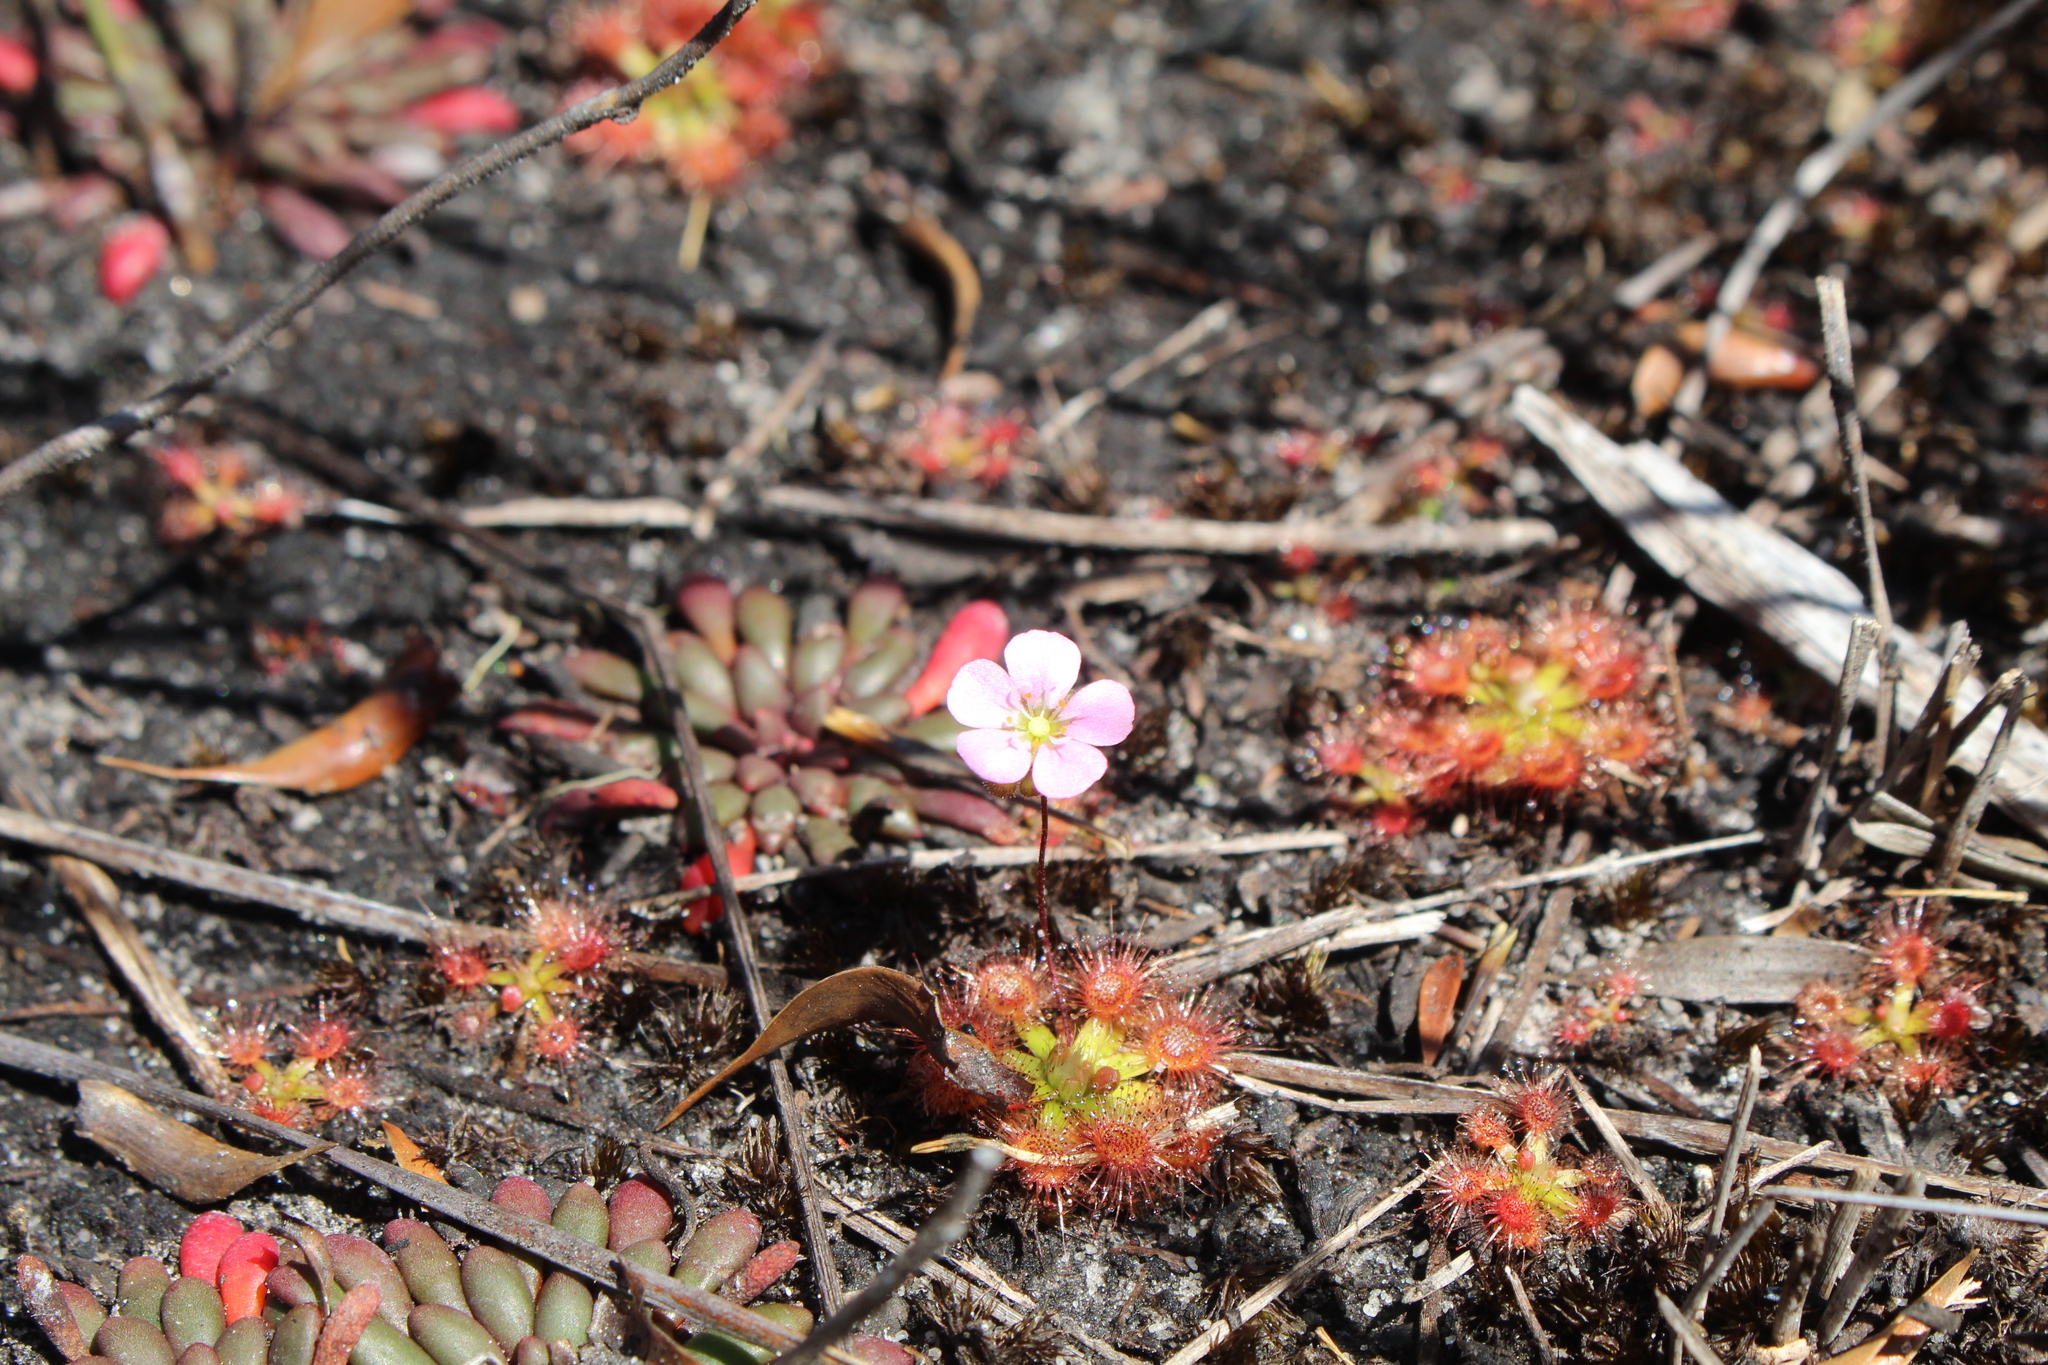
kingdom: Plantae
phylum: Tracheophyta
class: Magnoliopsida
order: Caryophyllales
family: Droseraceae
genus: Drosera
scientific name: Drosera pulchella
